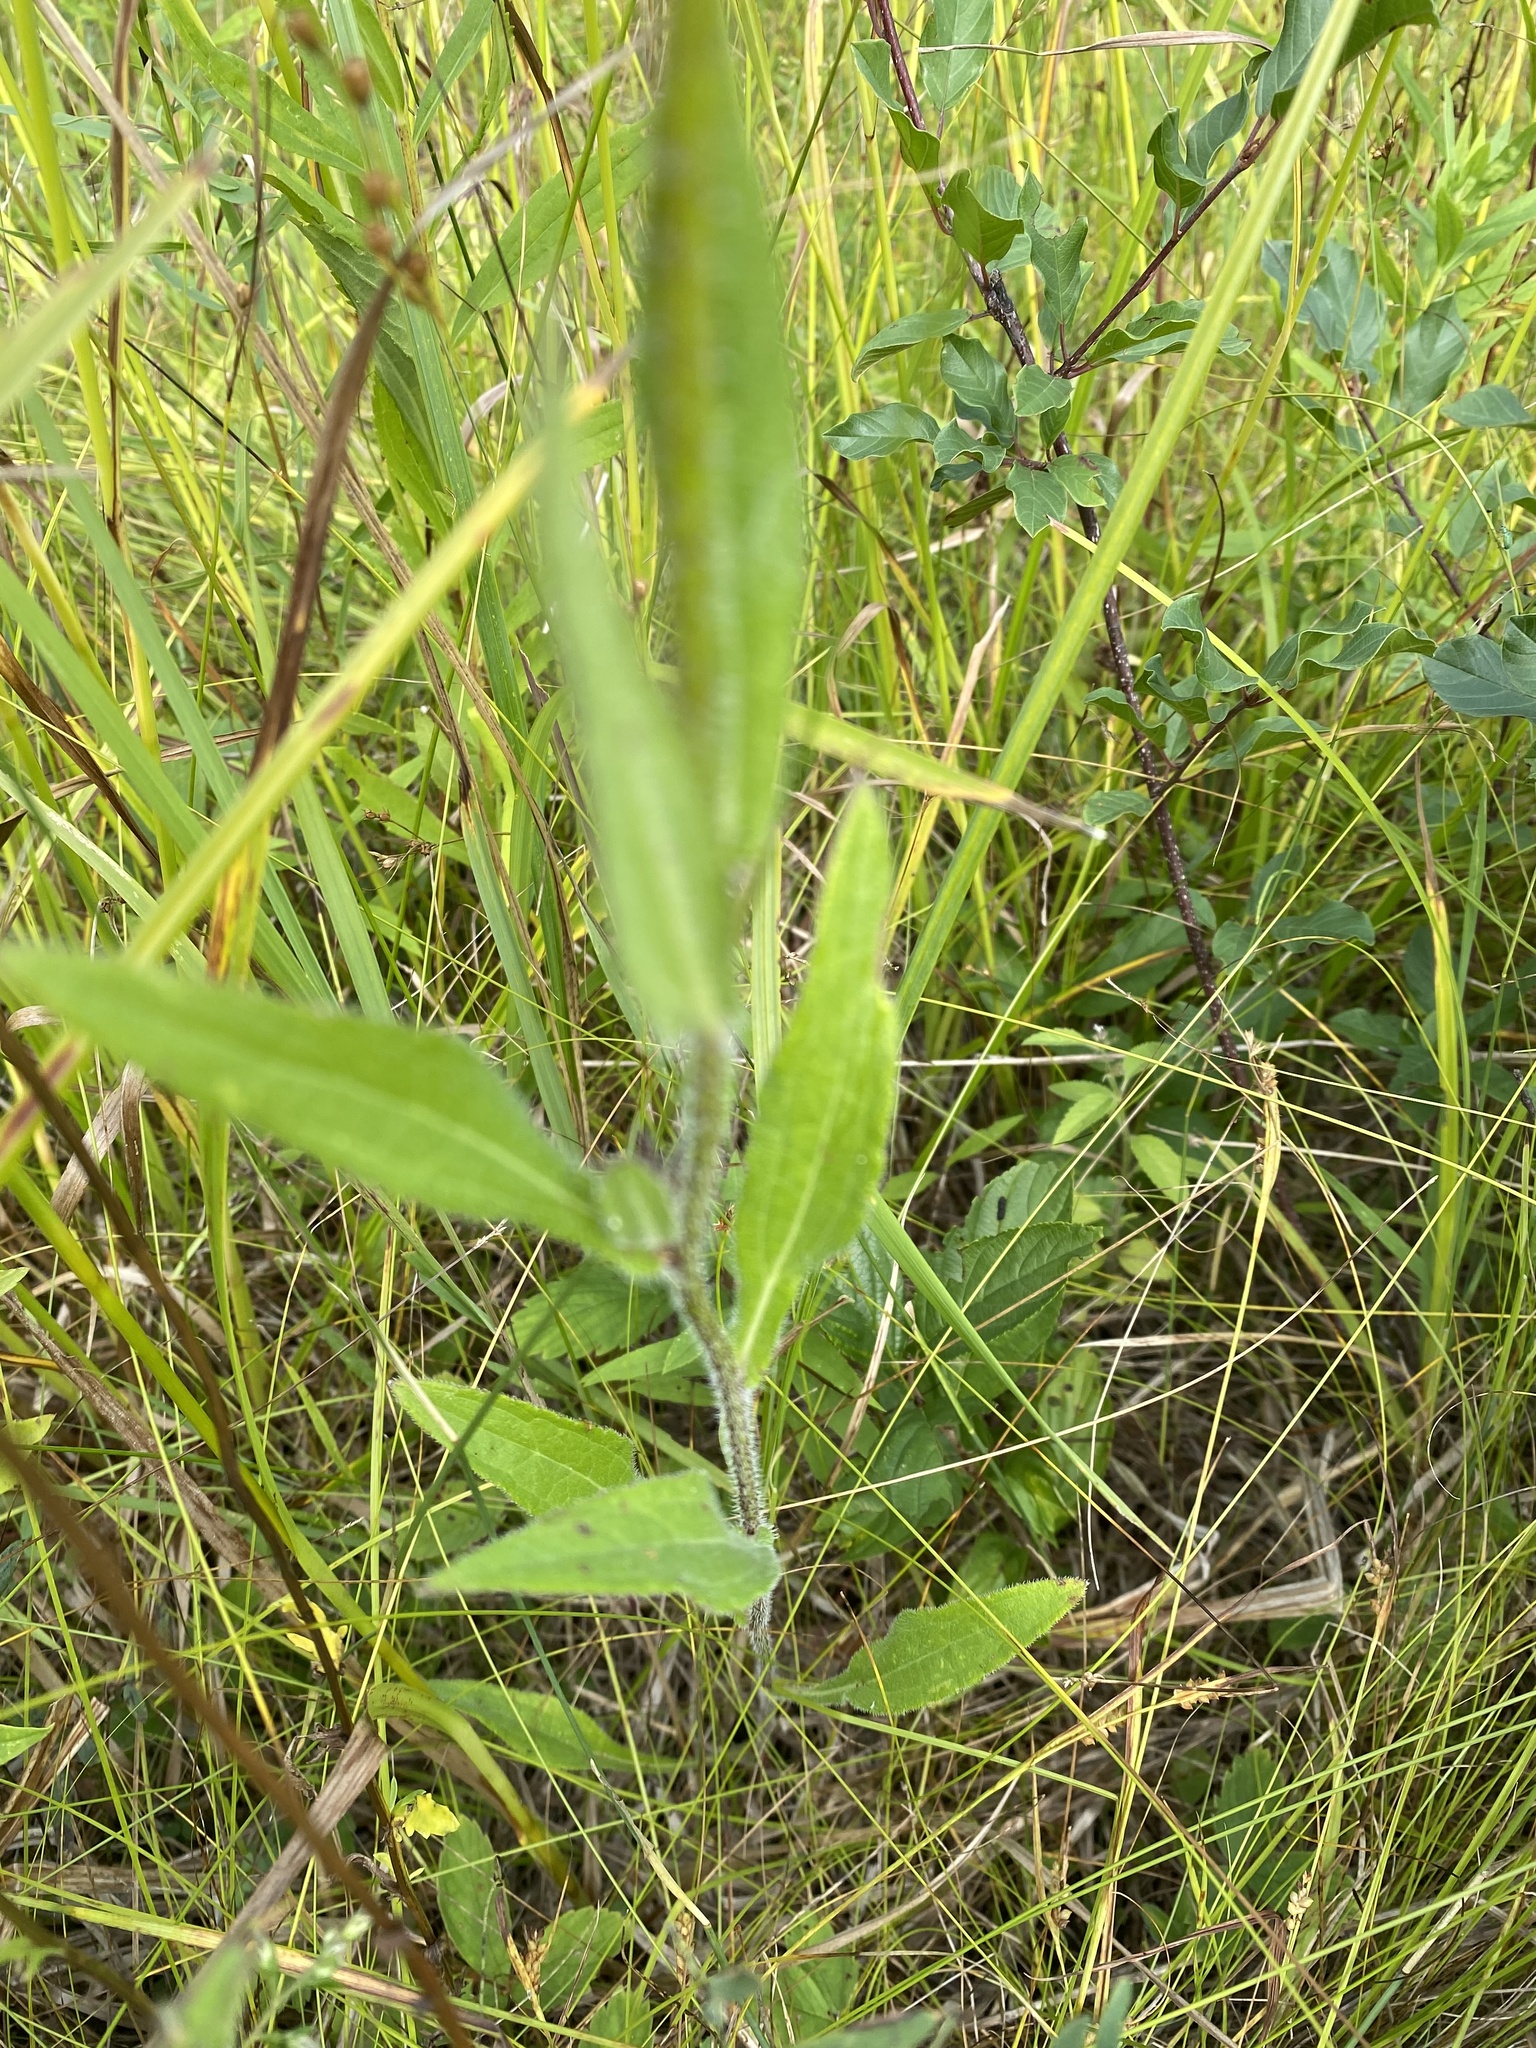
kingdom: Plantae
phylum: Tracheophyta
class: Magnoliopsida
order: Asterales
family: Asteraceae
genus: Rudbeckia
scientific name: Rudbeckia hirta
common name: Black-eyed-susan
